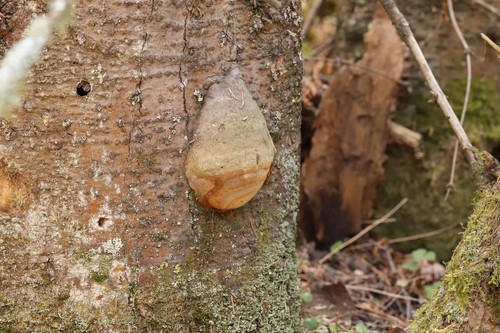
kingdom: Fungi
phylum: Basidiomycota
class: Agaricomycetes
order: Hymenochaetales
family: Hymenochaetaceae
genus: Phellinus
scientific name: Phellinus hartigii
